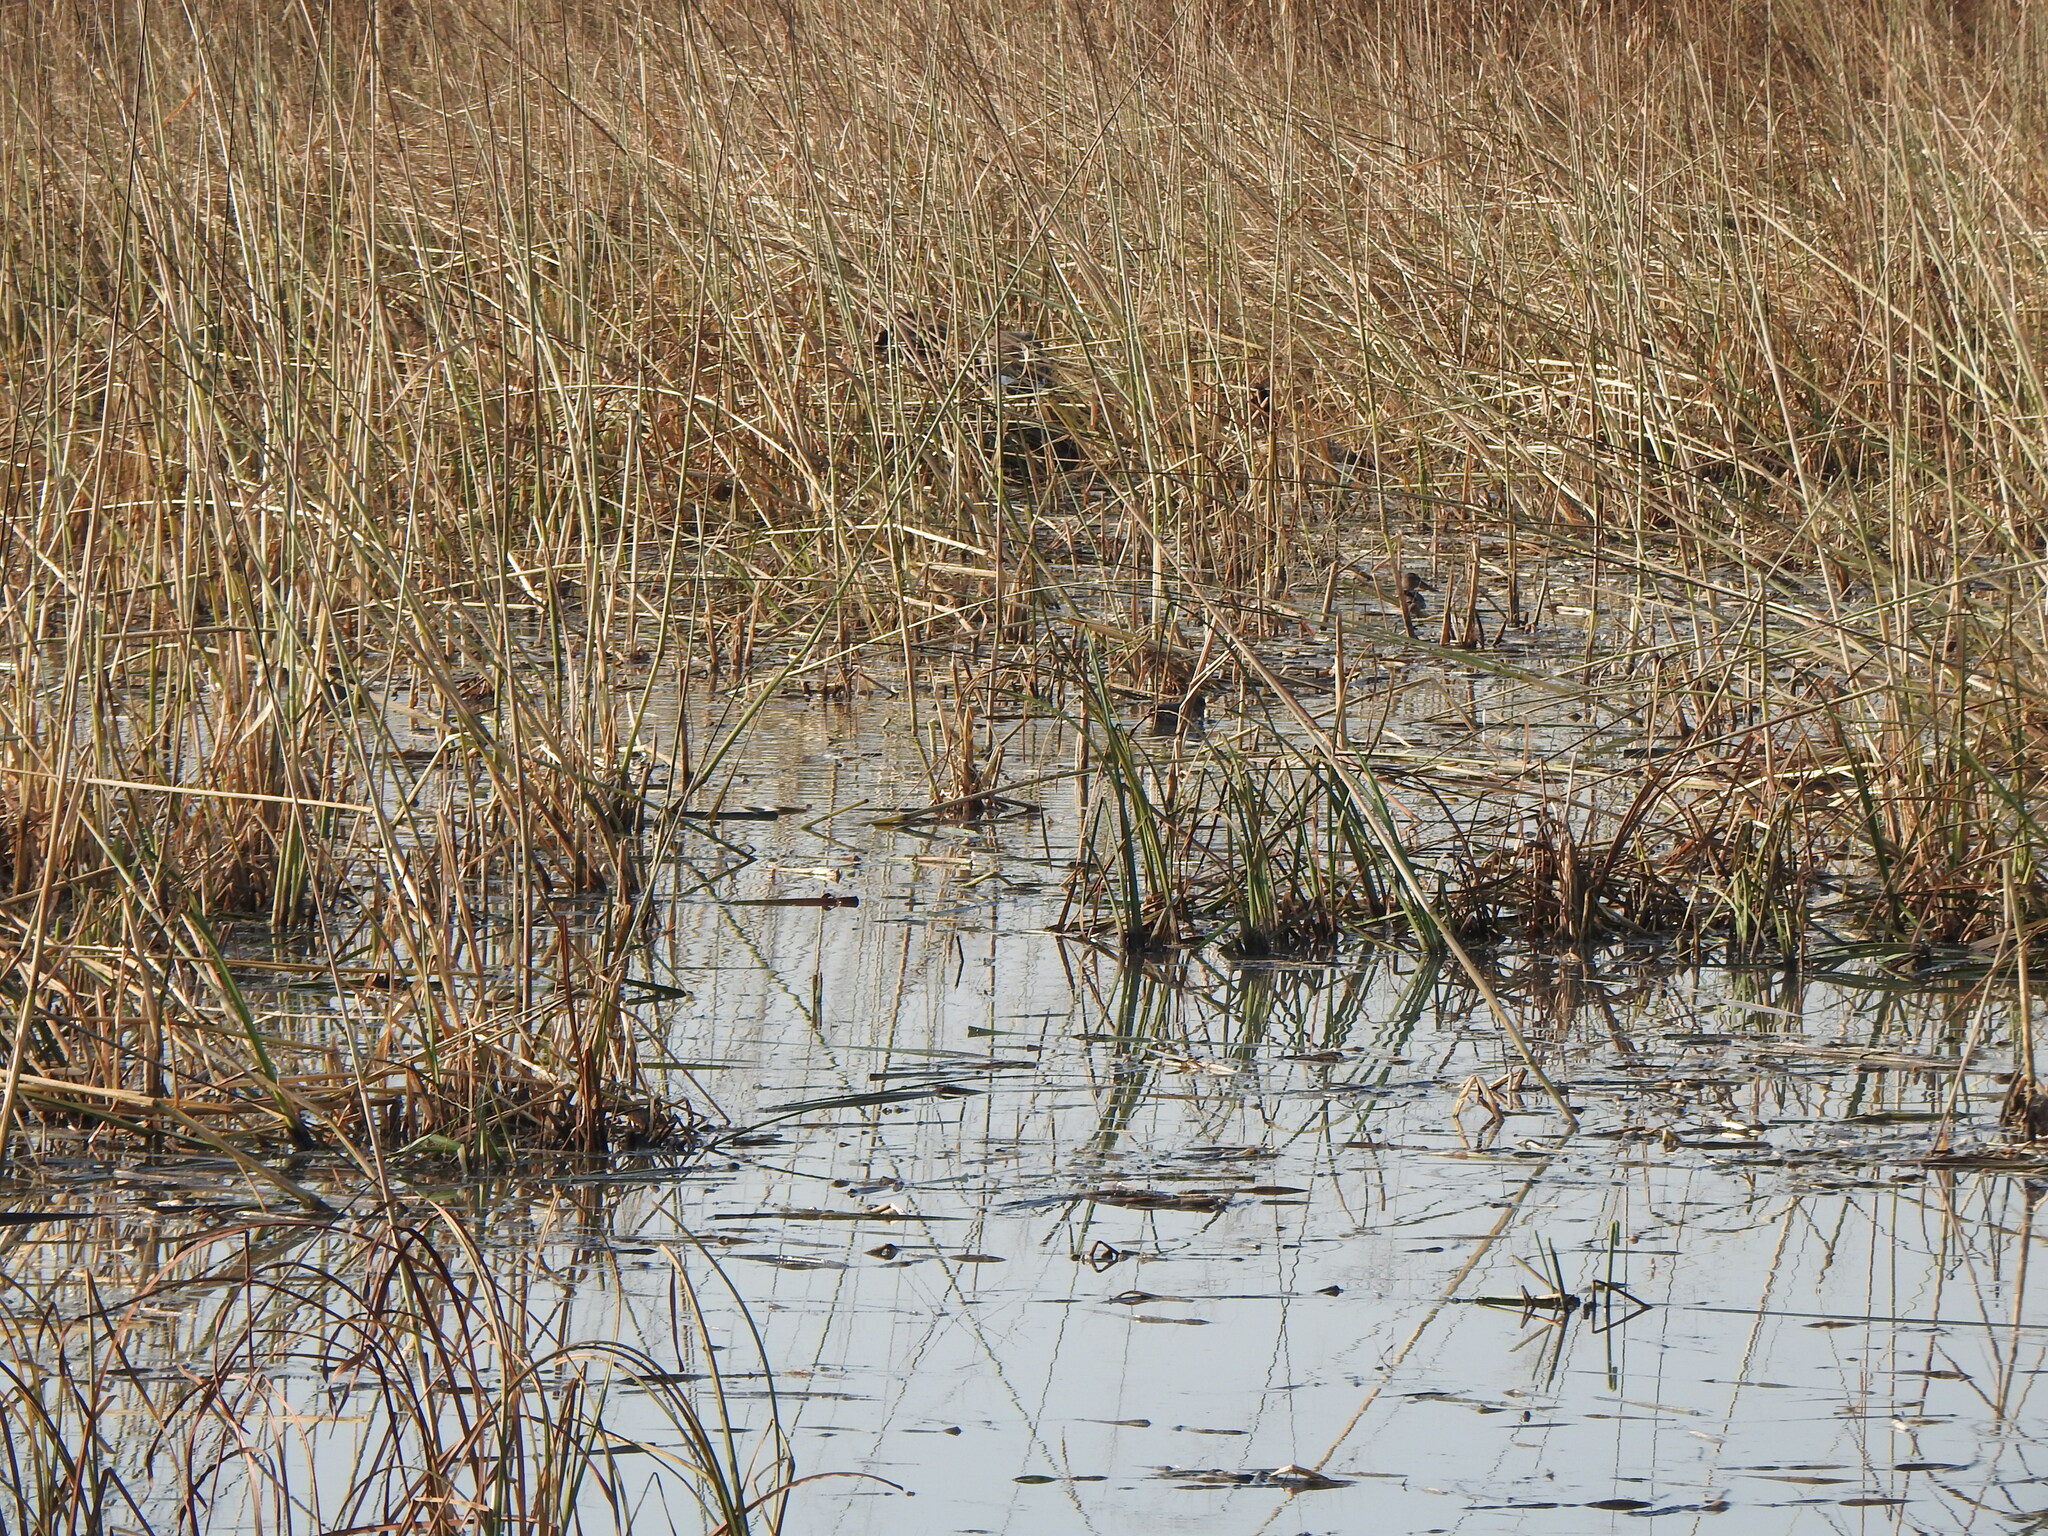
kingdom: Animalia
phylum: Chordata
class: Aves
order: Anseriformes
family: Anatidae
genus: Spatula
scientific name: Spatula clypeata
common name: Northern shoveler
